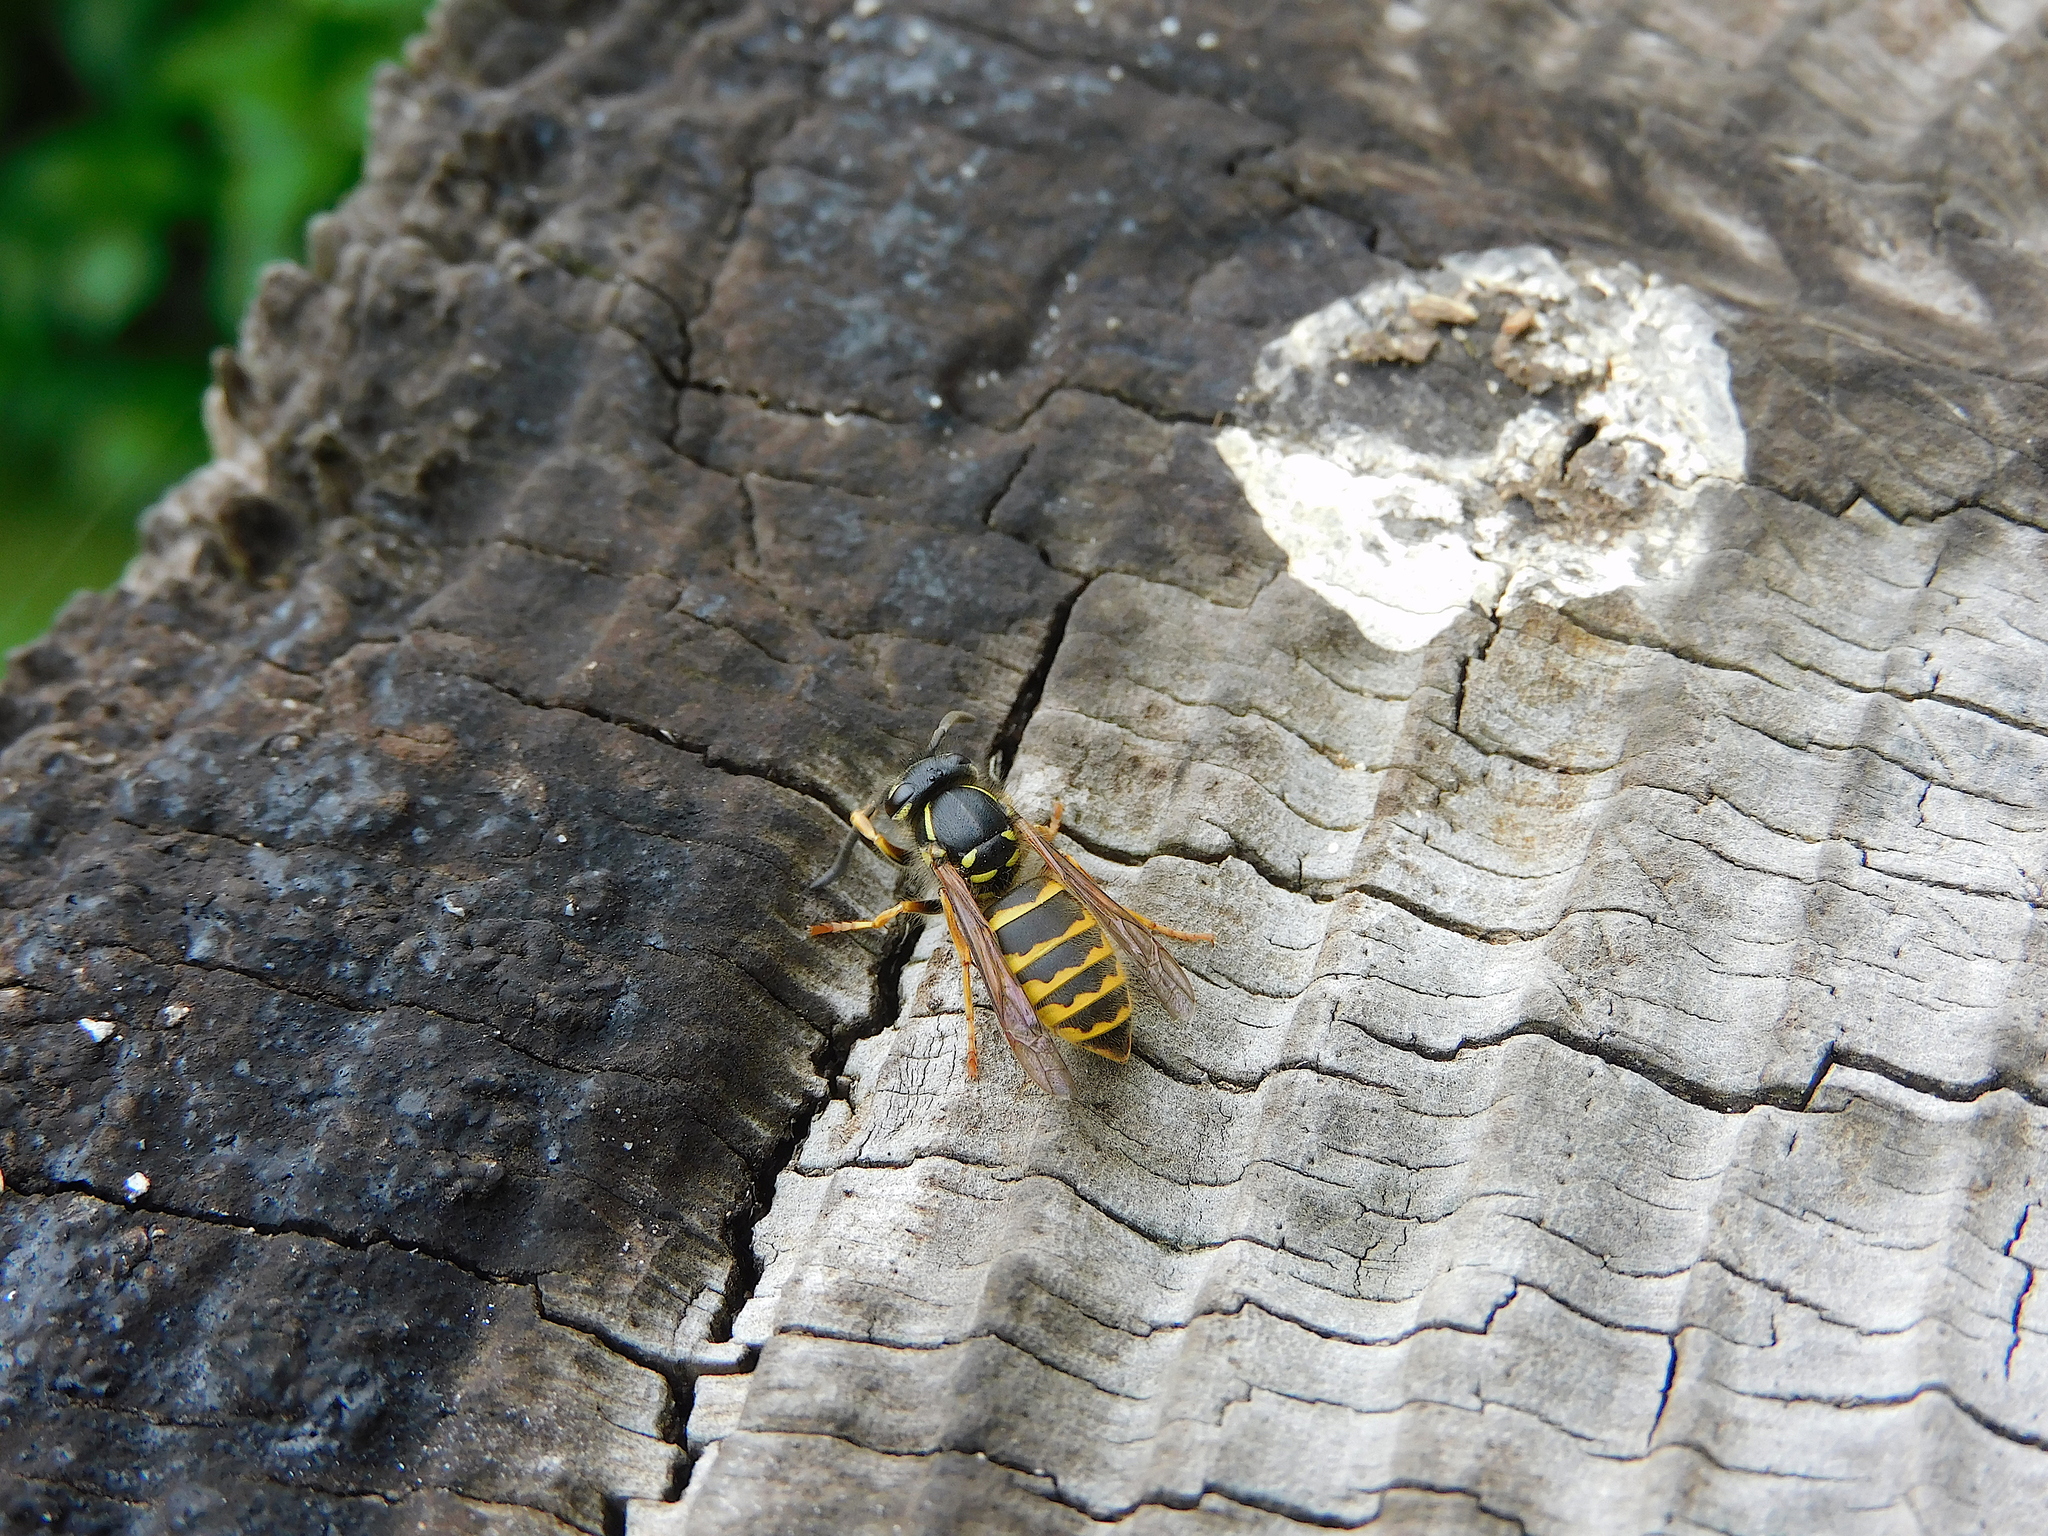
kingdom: Animalia
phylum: Arthropoda
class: Insecta
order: Hymenoptera
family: Vespidae
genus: Vespula
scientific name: Vespula vulgaris
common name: Common wasp
